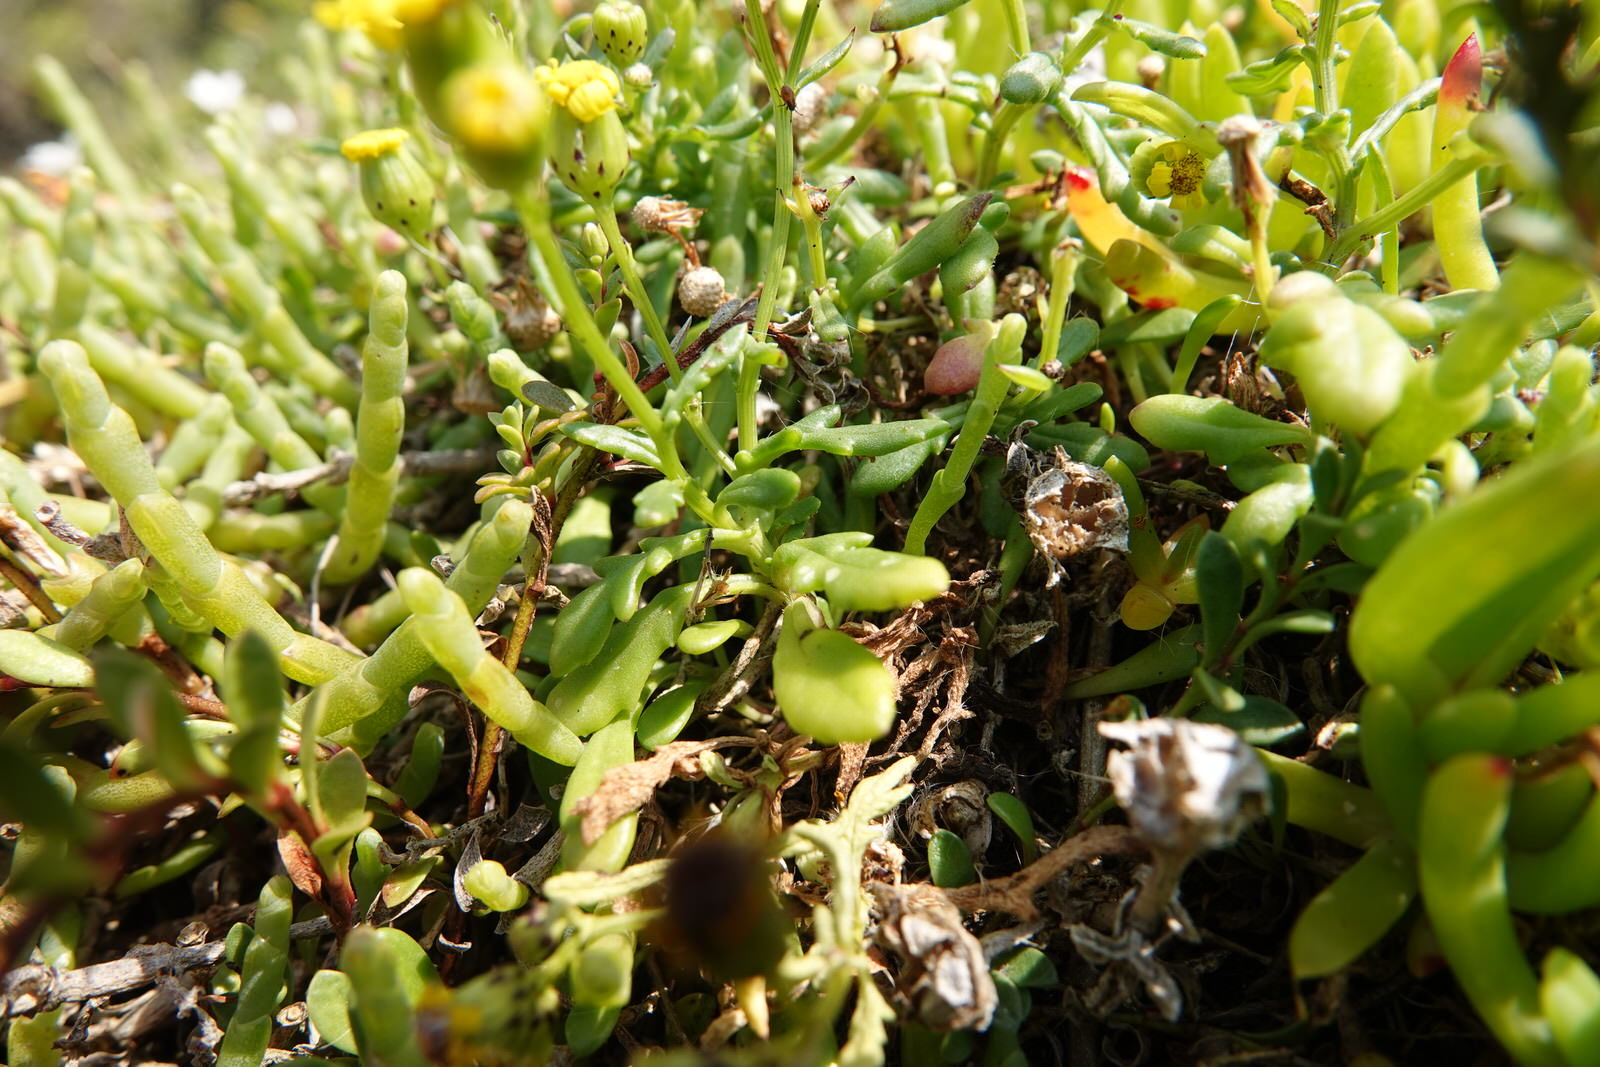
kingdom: Plantae
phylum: Tracheophyta
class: Magnoliopsida
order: Asterales
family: Asteraceae
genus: Senecio
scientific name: Senecio lautus
